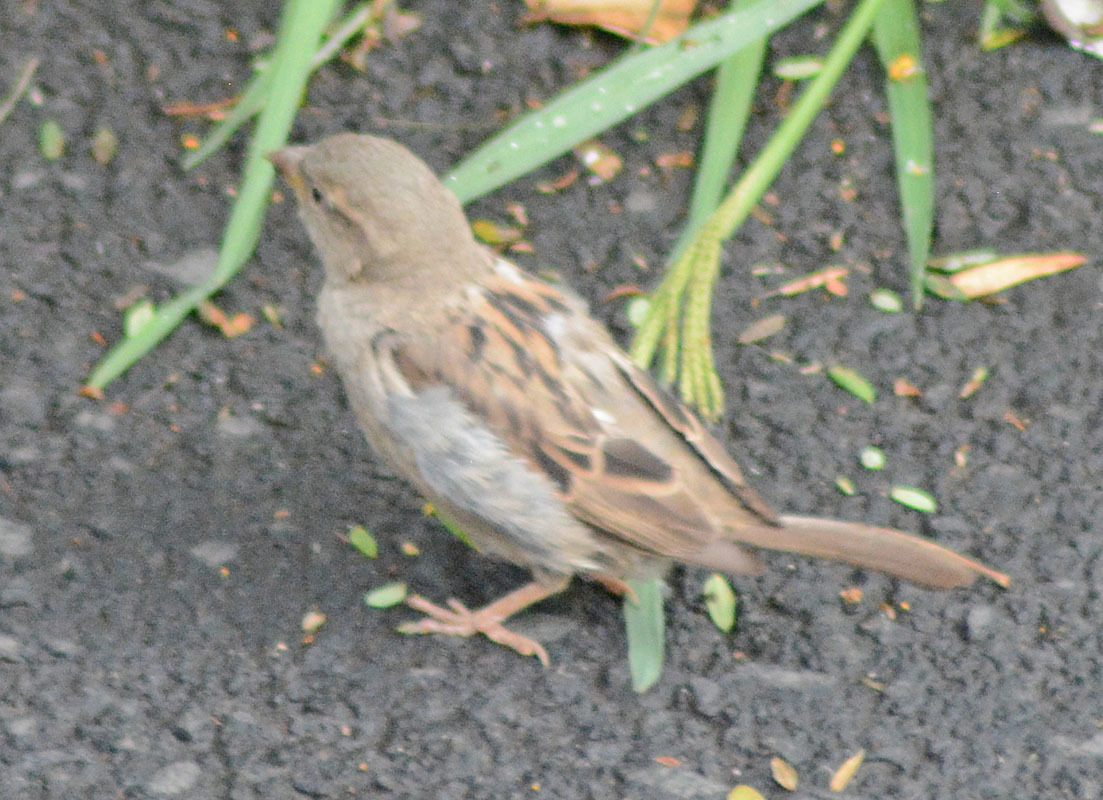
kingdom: Animalia
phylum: Chordata
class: Aves
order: Passeriformes
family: Passeridae
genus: Passer
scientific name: Passer domesticus
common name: House sparrow
